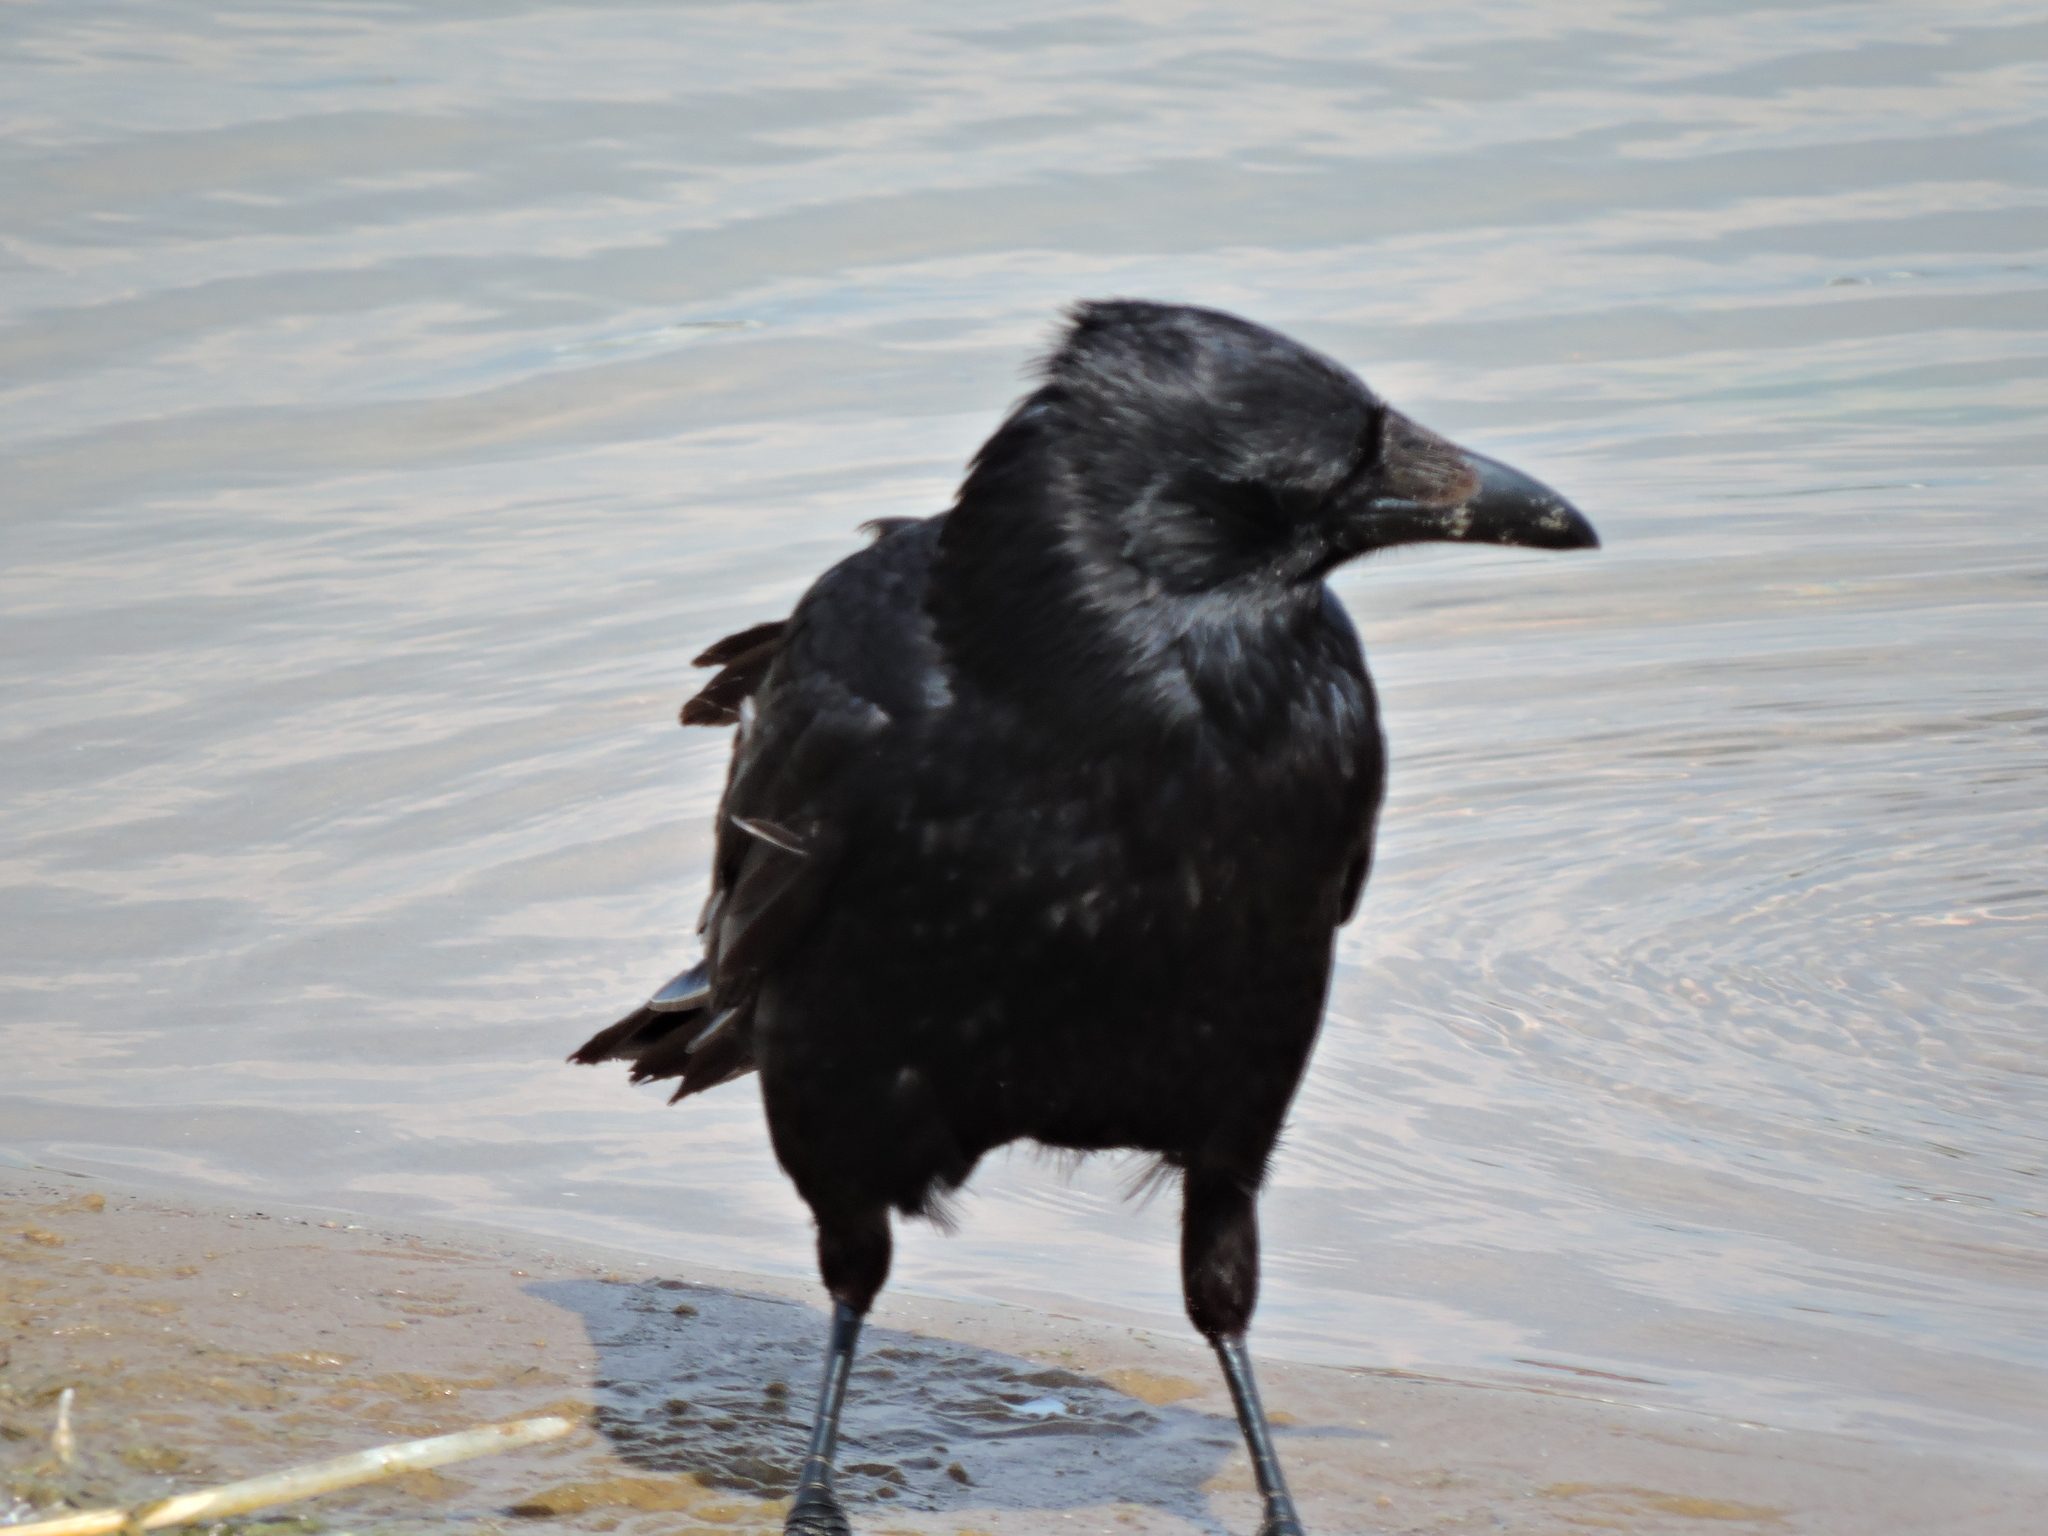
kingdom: Animalia
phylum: Chordata
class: Aves
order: Passeriformes
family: Corvidae
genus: Corvus
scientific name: Corvus corone
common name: Carrion crow
